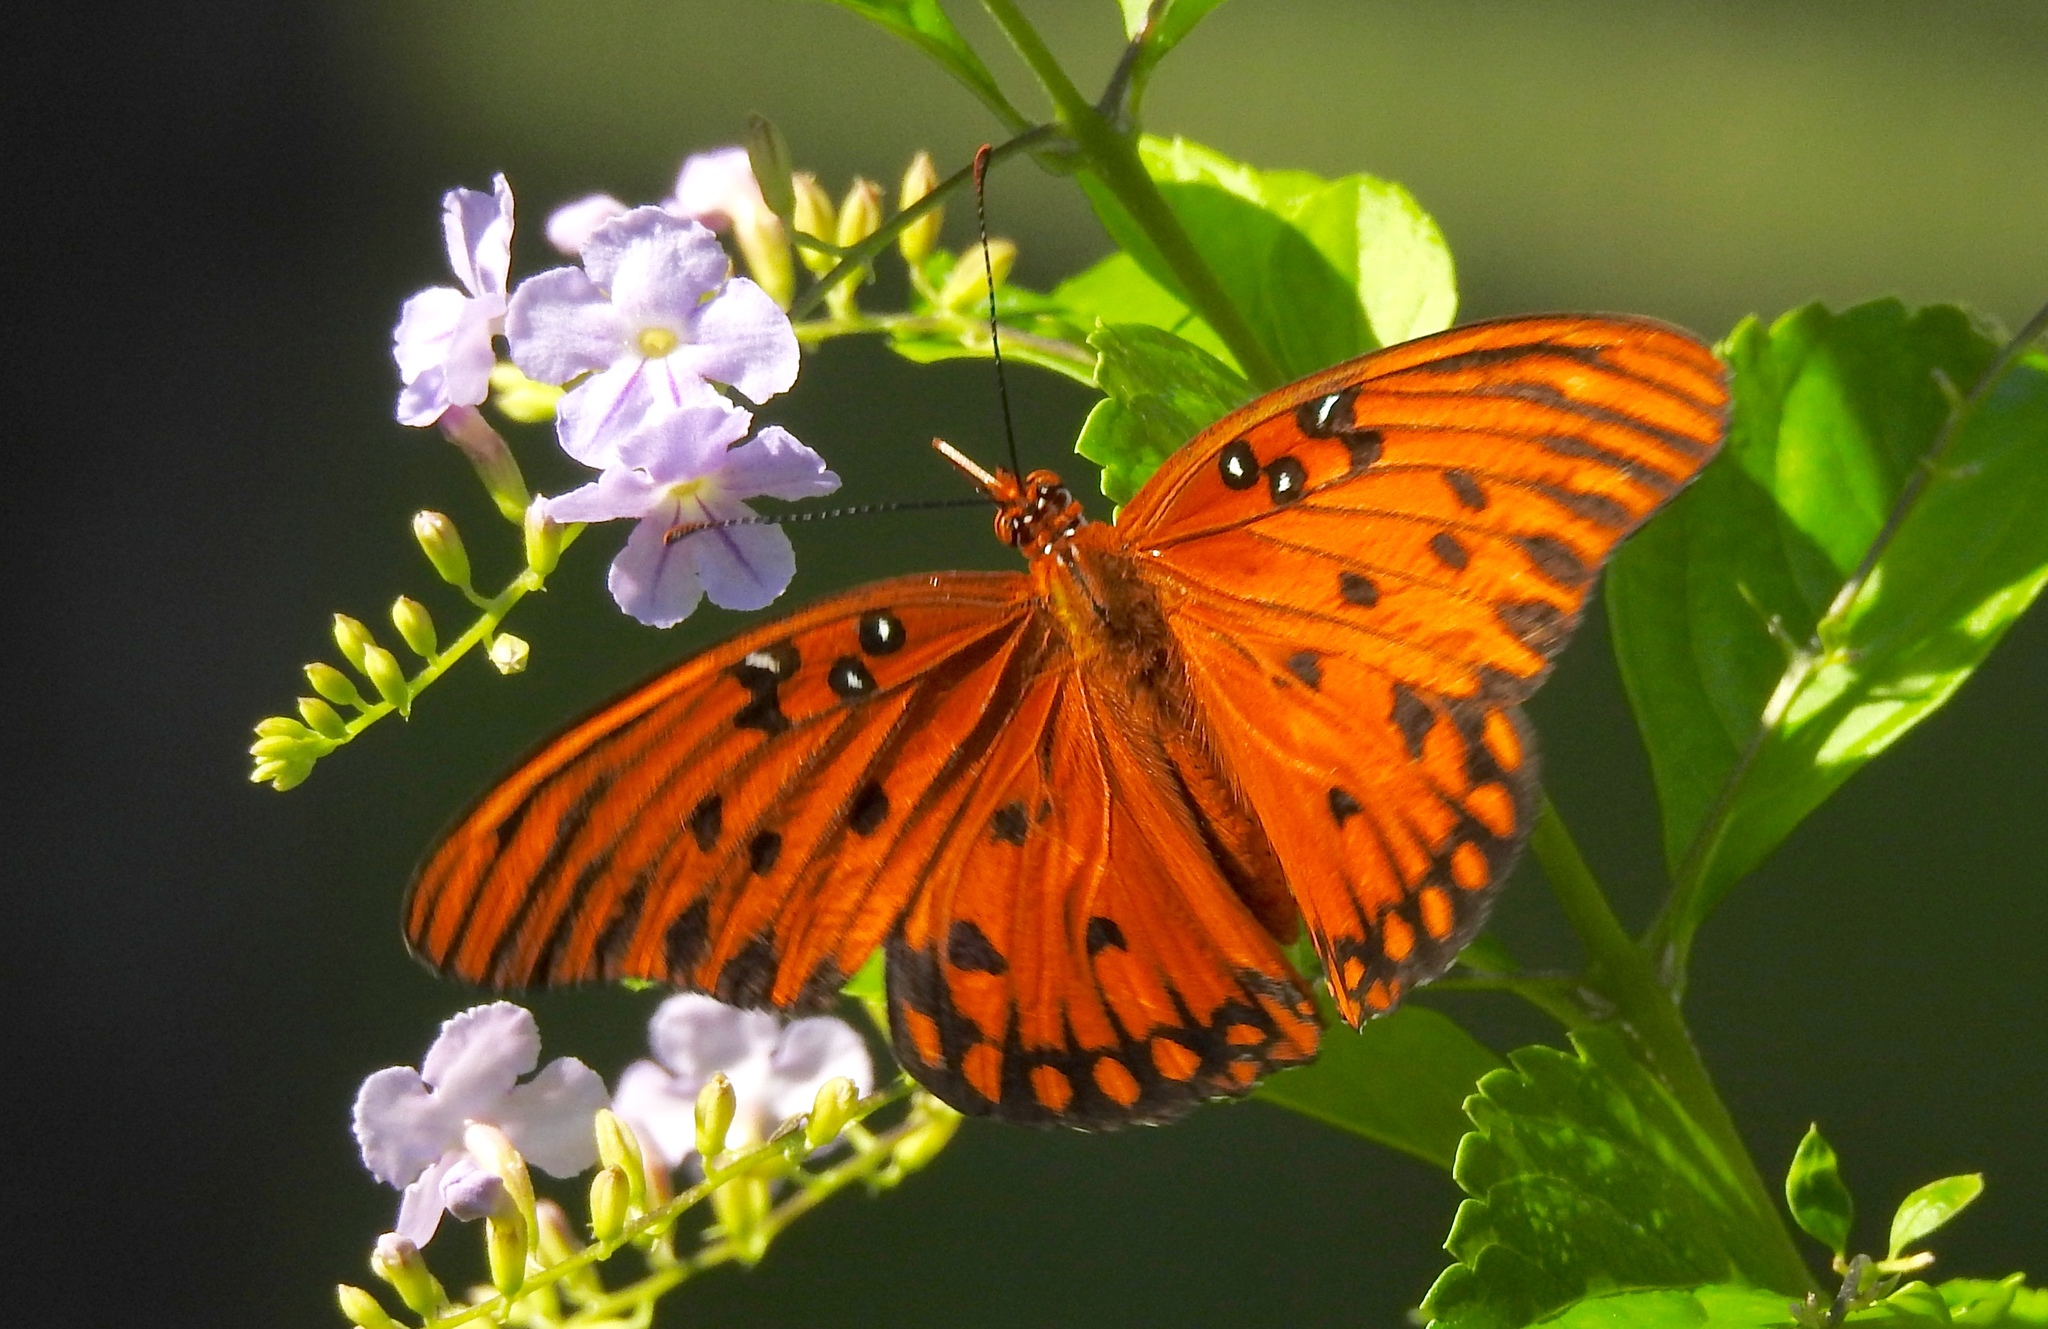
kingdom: Animalia
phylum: Arthropoda
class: Insecta
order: Lepidoptera
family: Nymphalidae
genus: Dione
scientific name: Dione vanillae
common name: Gulf fritillary
